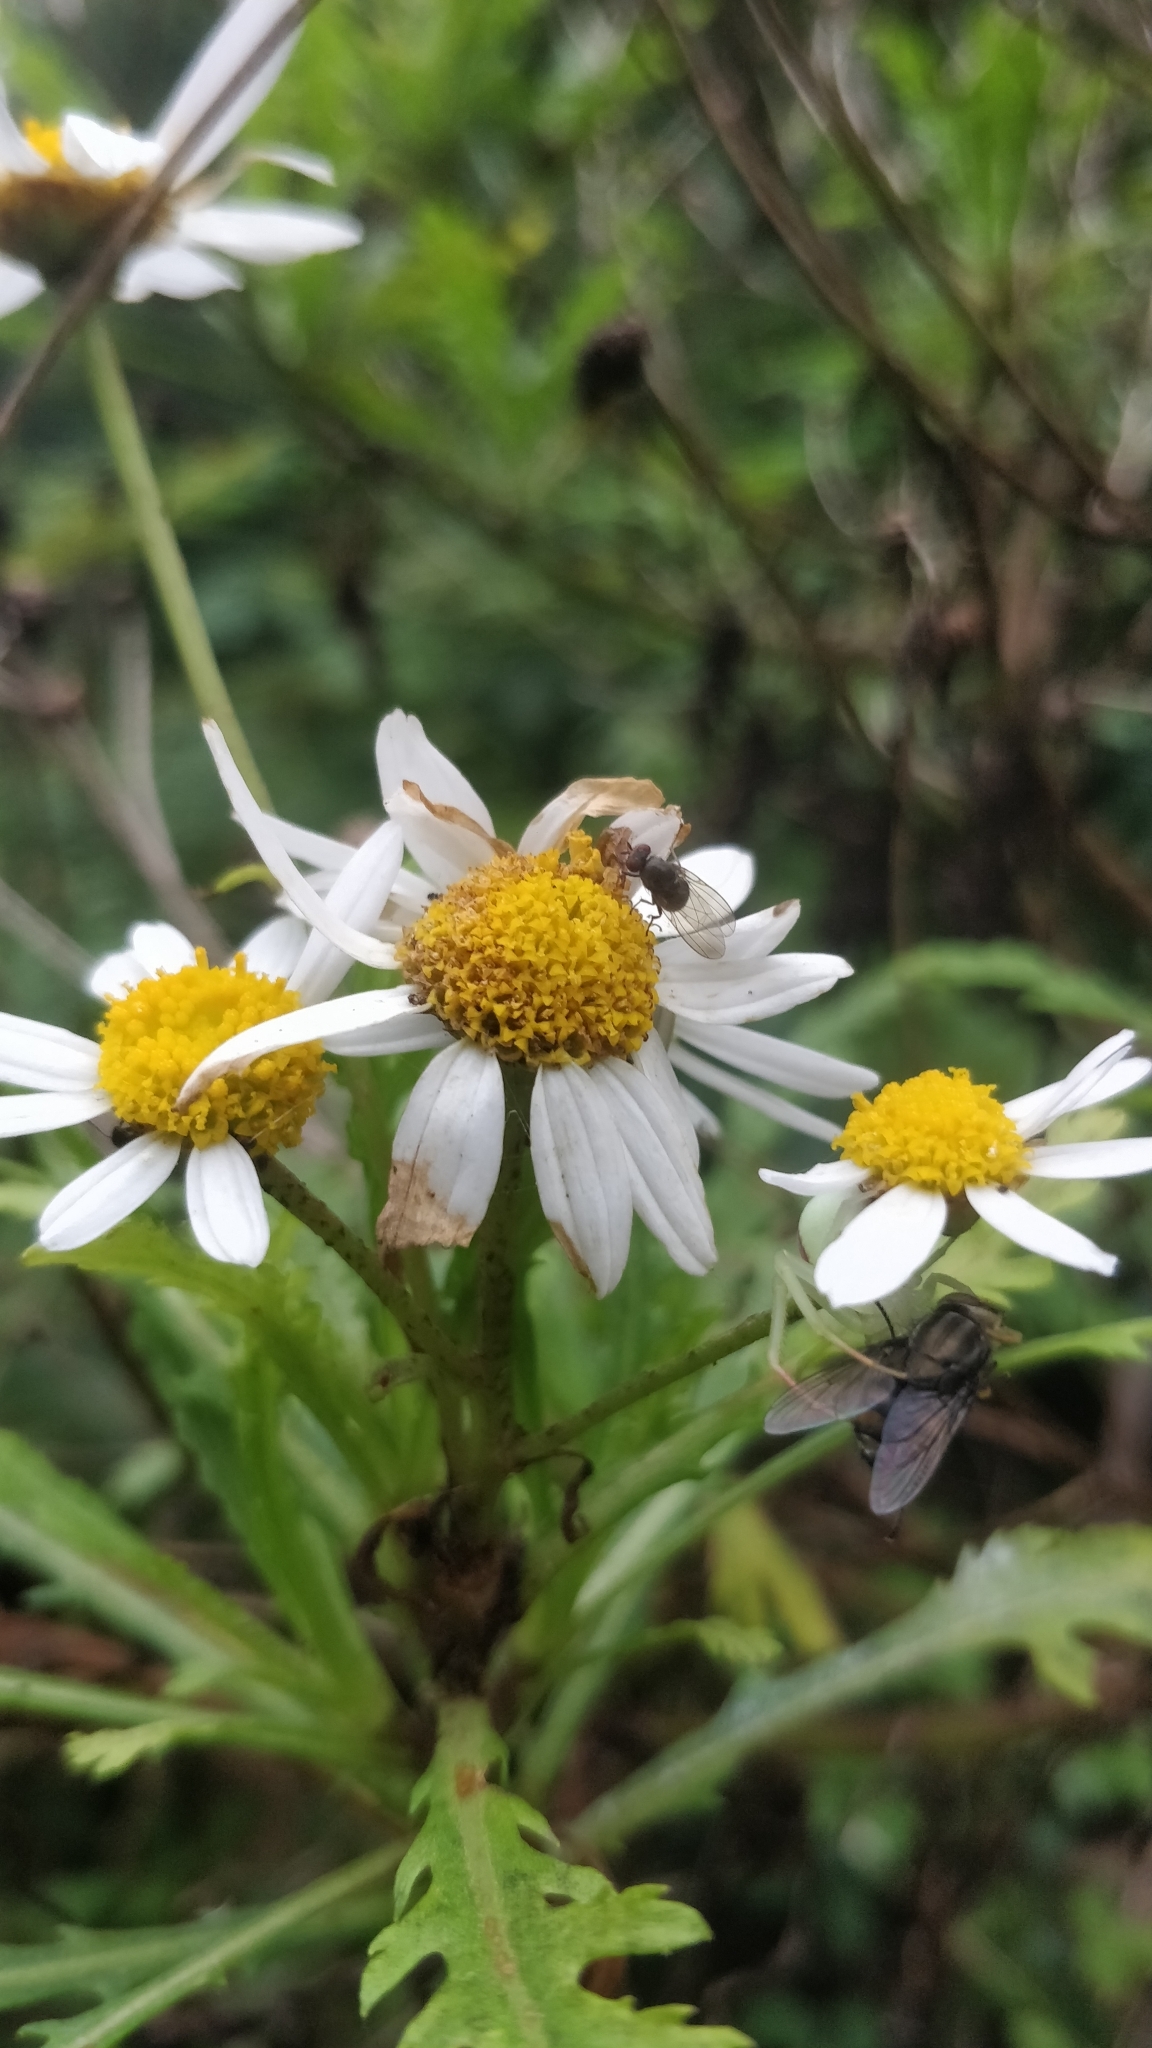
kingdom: Plantae
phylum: Tracheophyta
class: Magnoliopsida
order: Asterales
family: Asteraceae
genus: Argyranthemum
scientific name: Argyranthemum pinnatifidum
